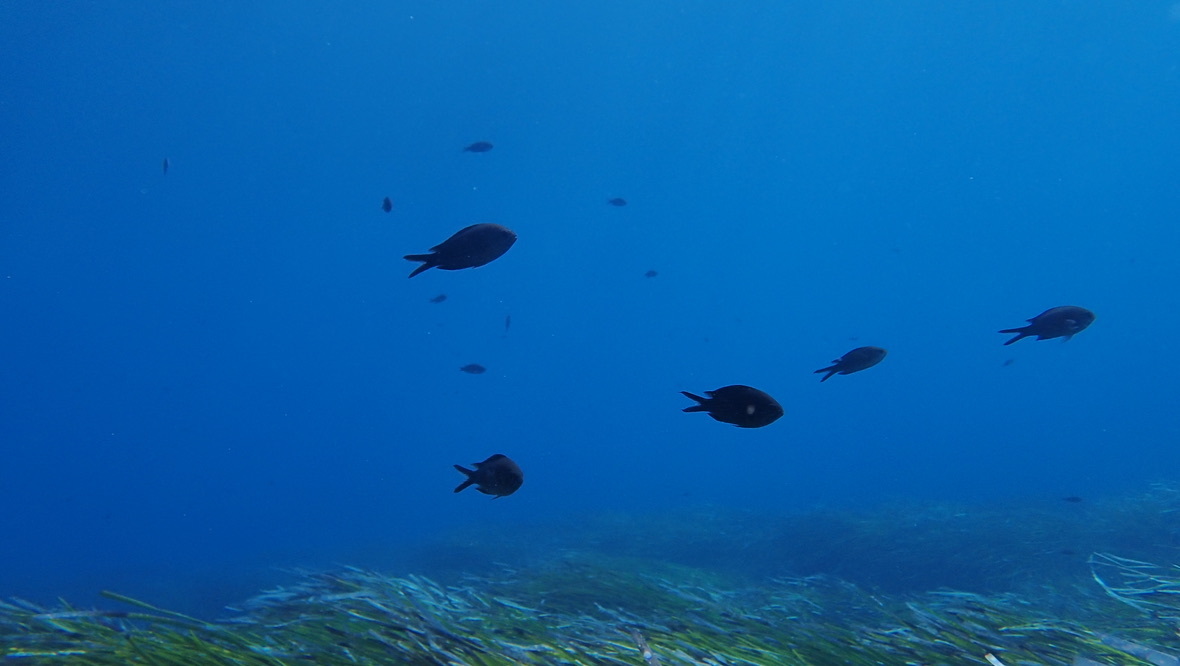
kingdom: Animalia
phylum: Chordata
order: Perciformes
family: Pomacentridae
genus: Chromis
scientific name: Chromis chromis
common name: Damselfish
